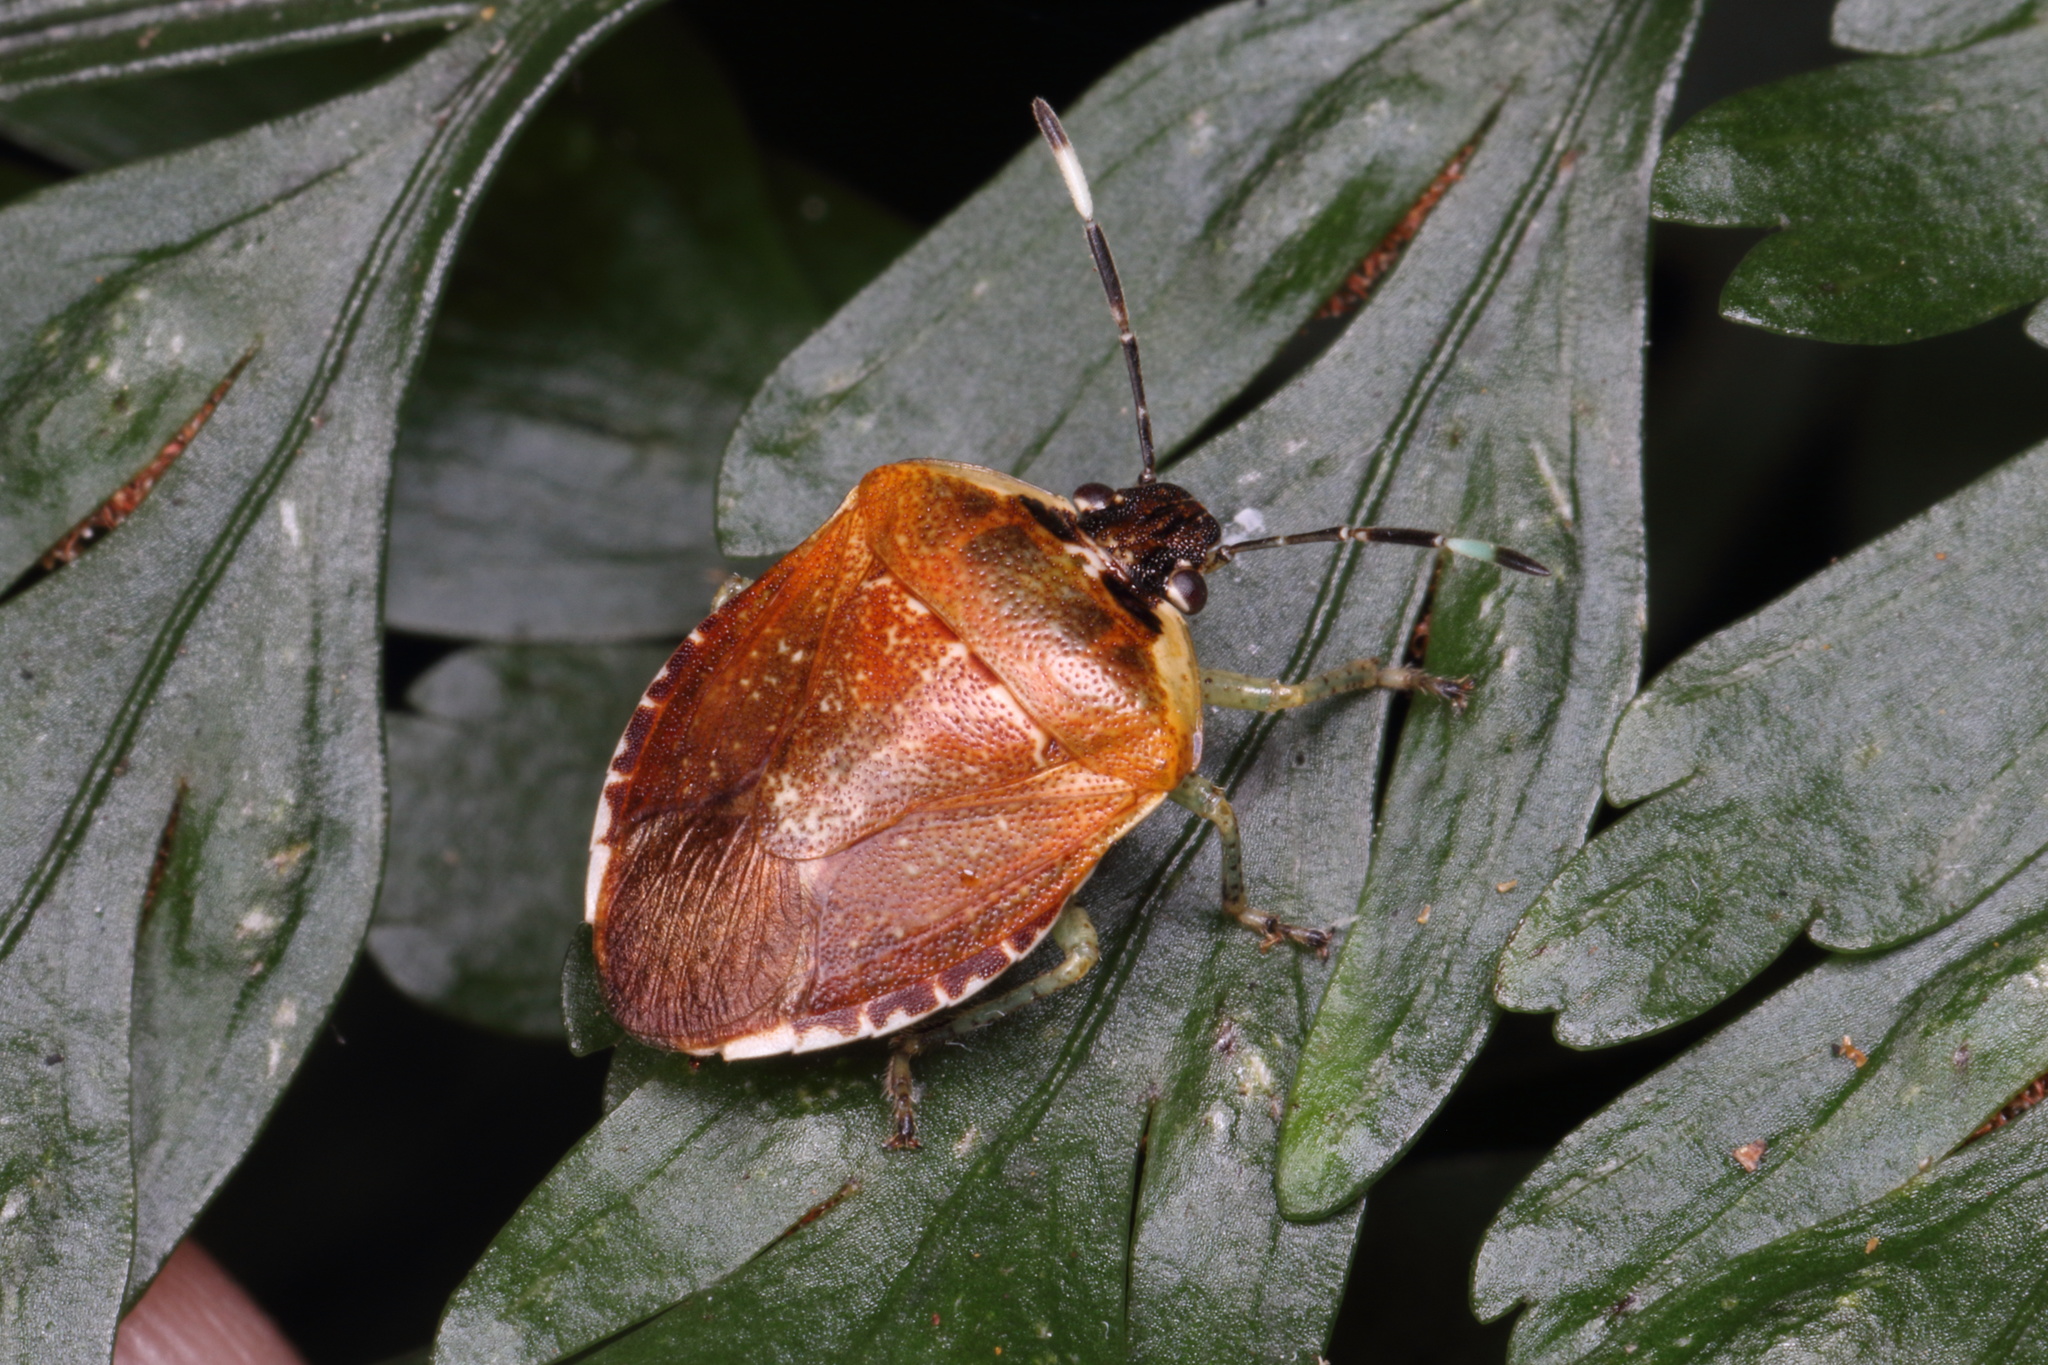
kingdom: Animalia
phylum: Arthropoda
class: Insecta
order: Hemiptera
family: Pentatomidae
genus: Monteithiella
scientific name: Monteithiella
